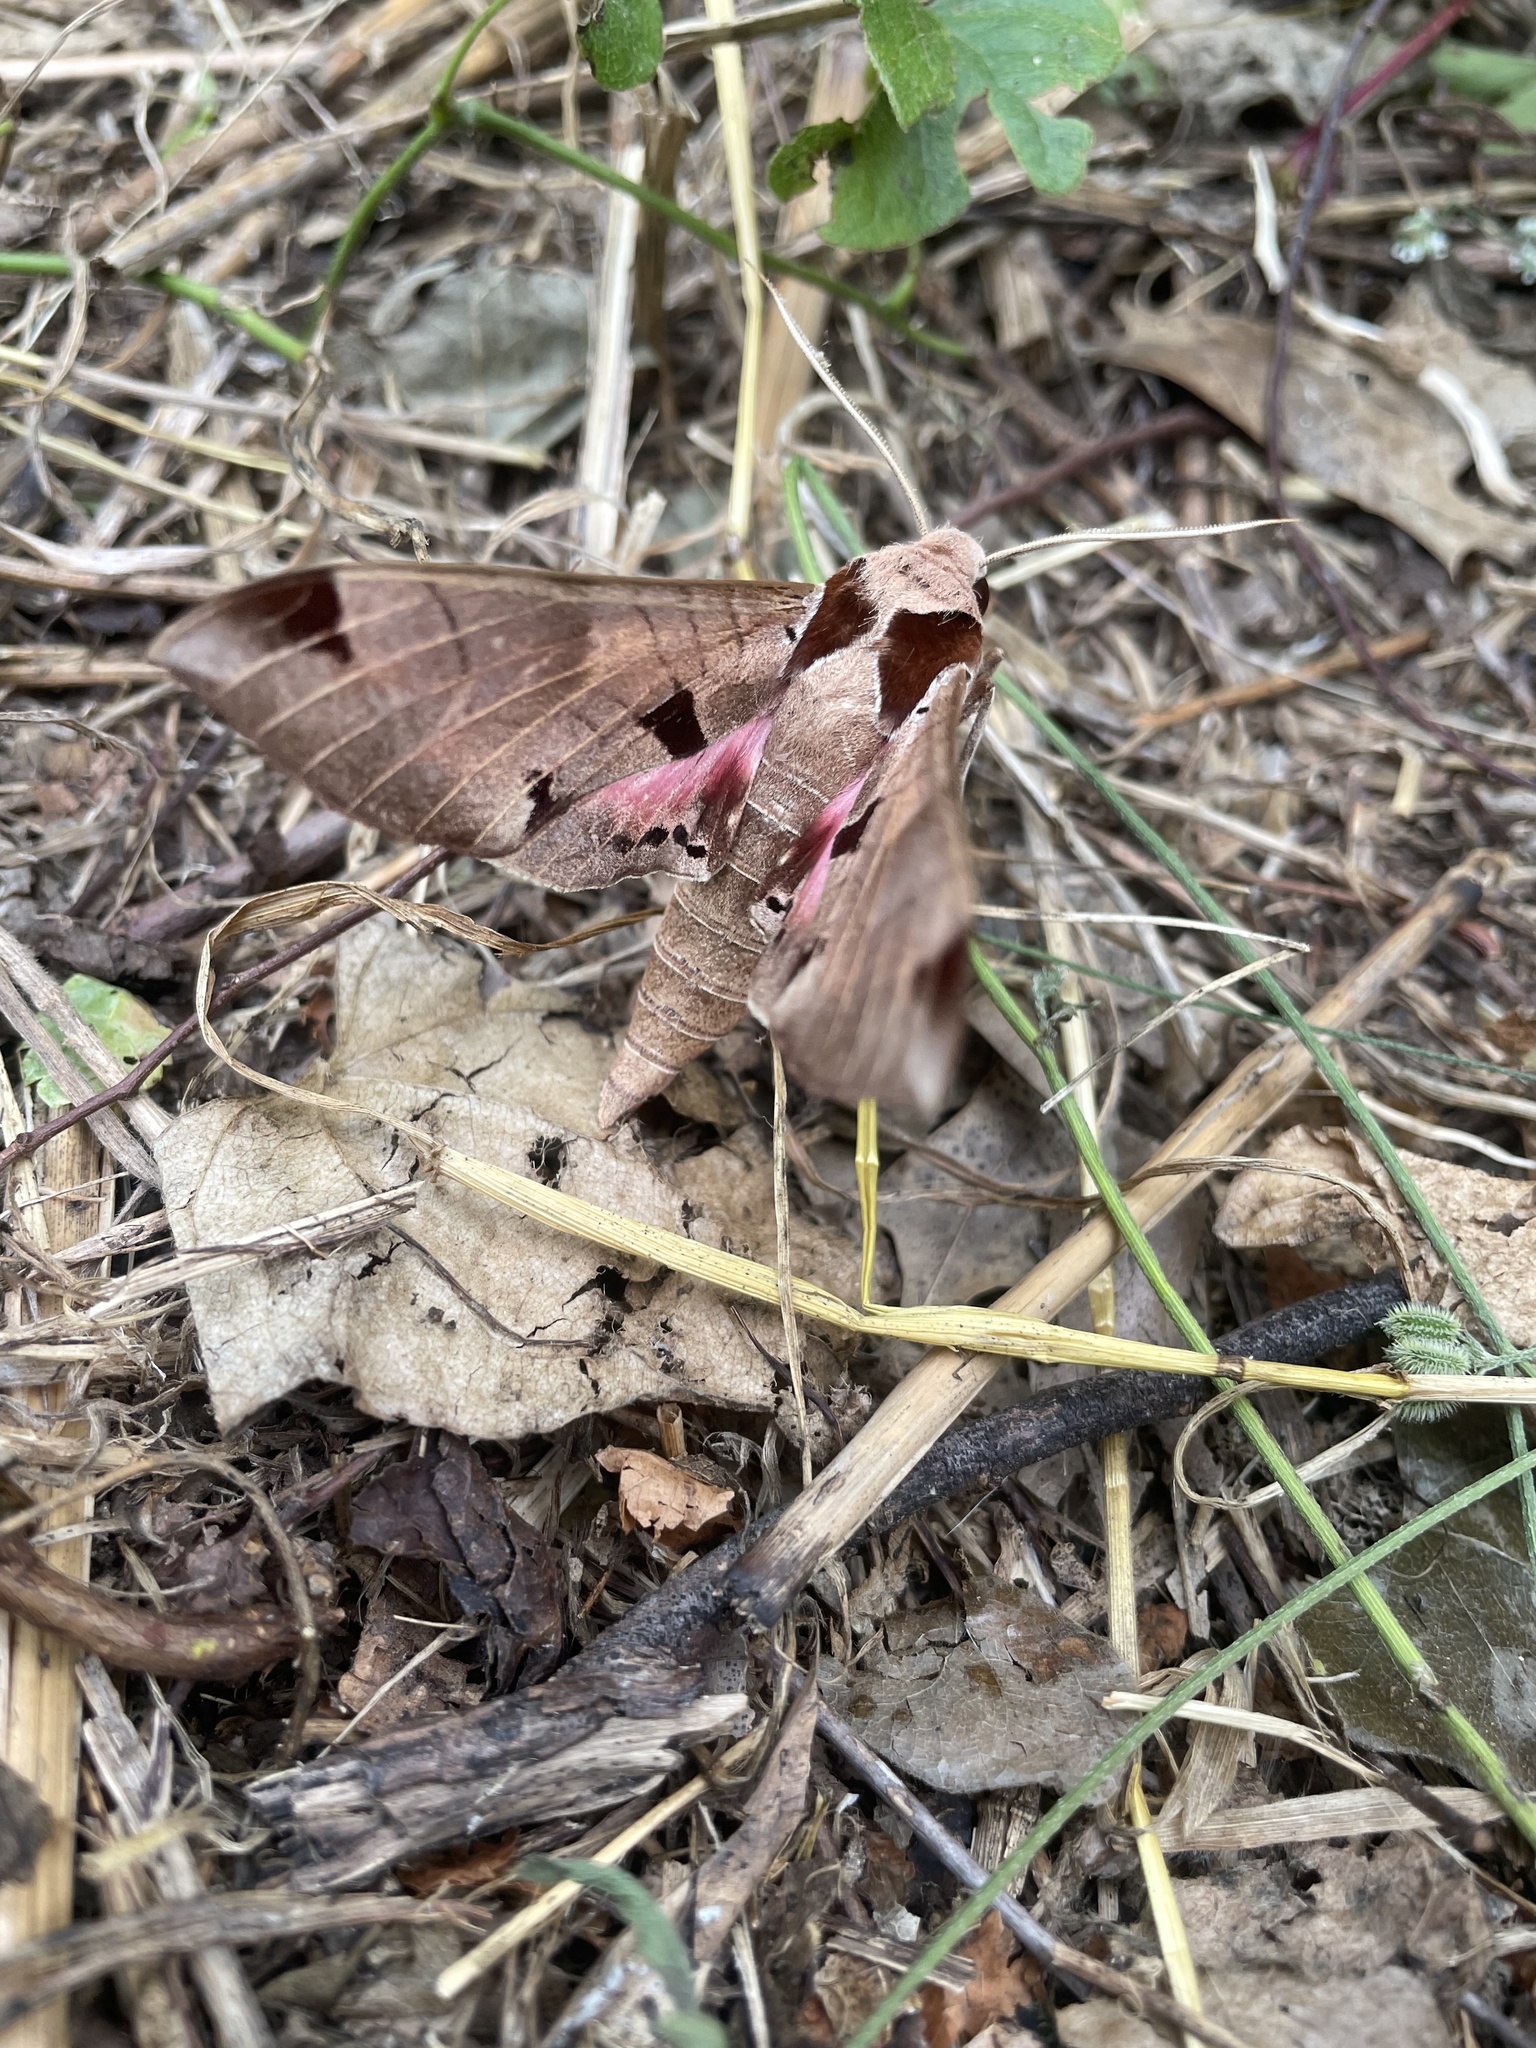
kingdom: Animalia
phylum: Arthropoda
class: Insecta
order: Lepidoptera
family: Sphingidae
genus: Eumorpha
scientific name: Eumorpha achemon
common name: Achemon sphinx
